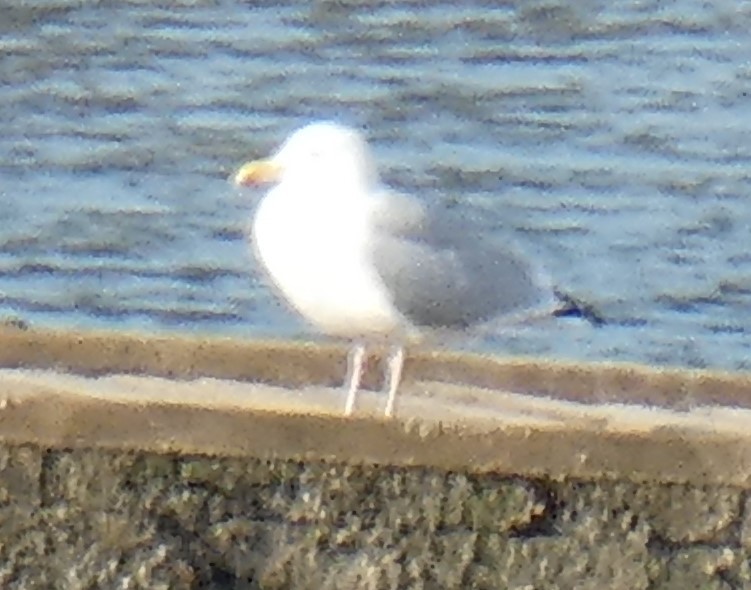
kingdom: Animalia
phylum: Chordata
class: Aves
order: Charadriiformes
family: Laridae
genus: Larus
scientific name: Larus argentatus
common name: Herring gull
